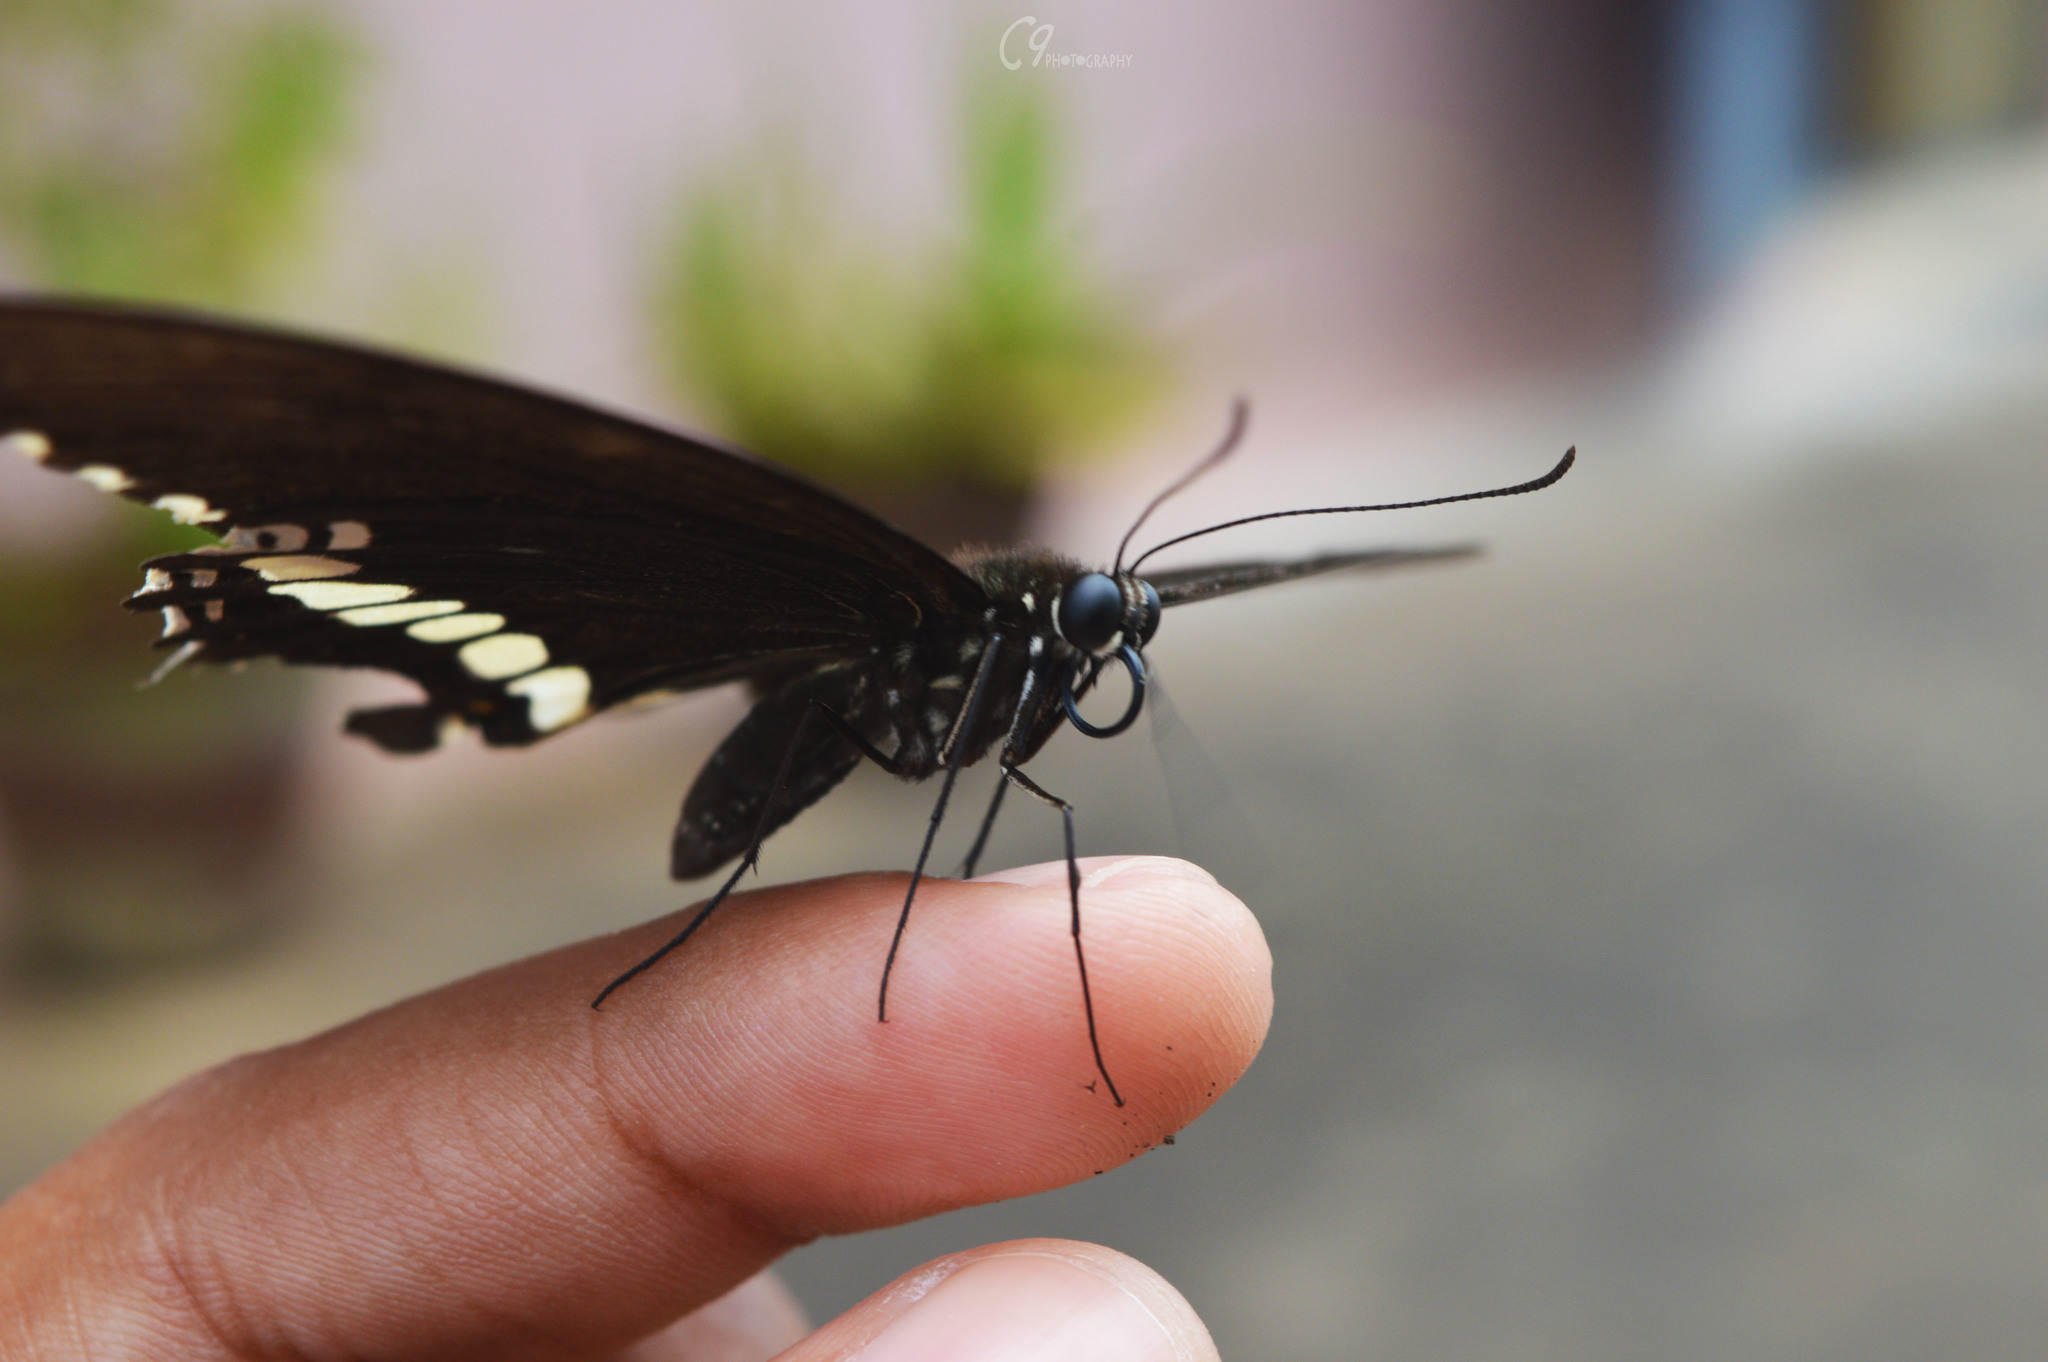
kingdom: Animalia
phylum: Arthropoda
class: Insecta
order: Lepidoptera
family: Papilionidae
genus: Papilio
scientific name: Papilio polytes
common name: Common mormon
